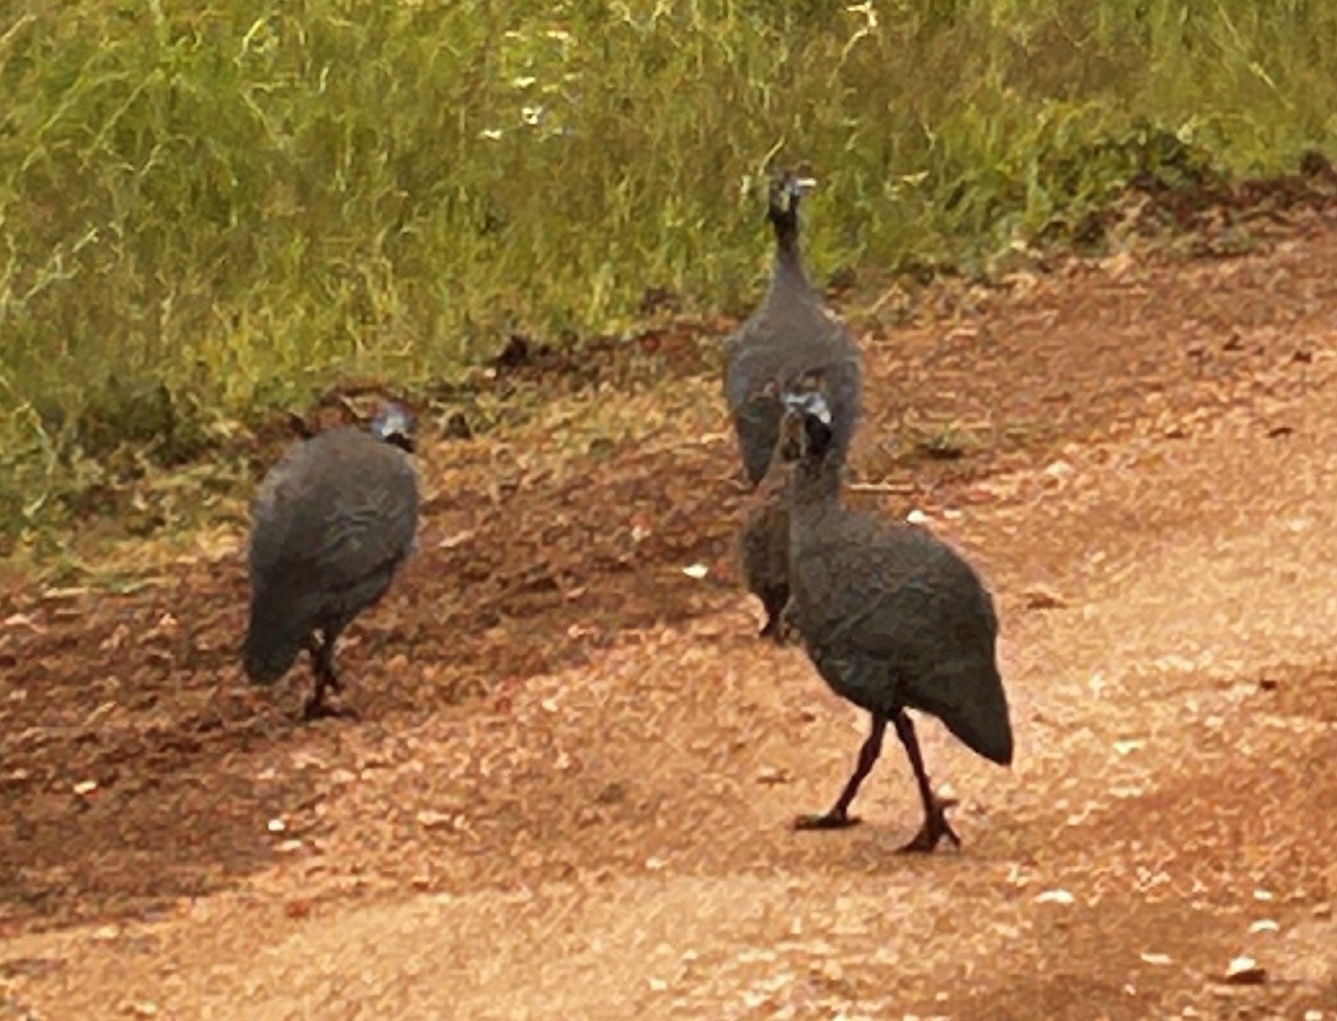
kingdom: Animalia
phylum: Chordata
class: Aves
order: Galliformes
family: Numididae
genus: Numida
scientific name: Numida meleagris
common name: Helmeted guineafowl
